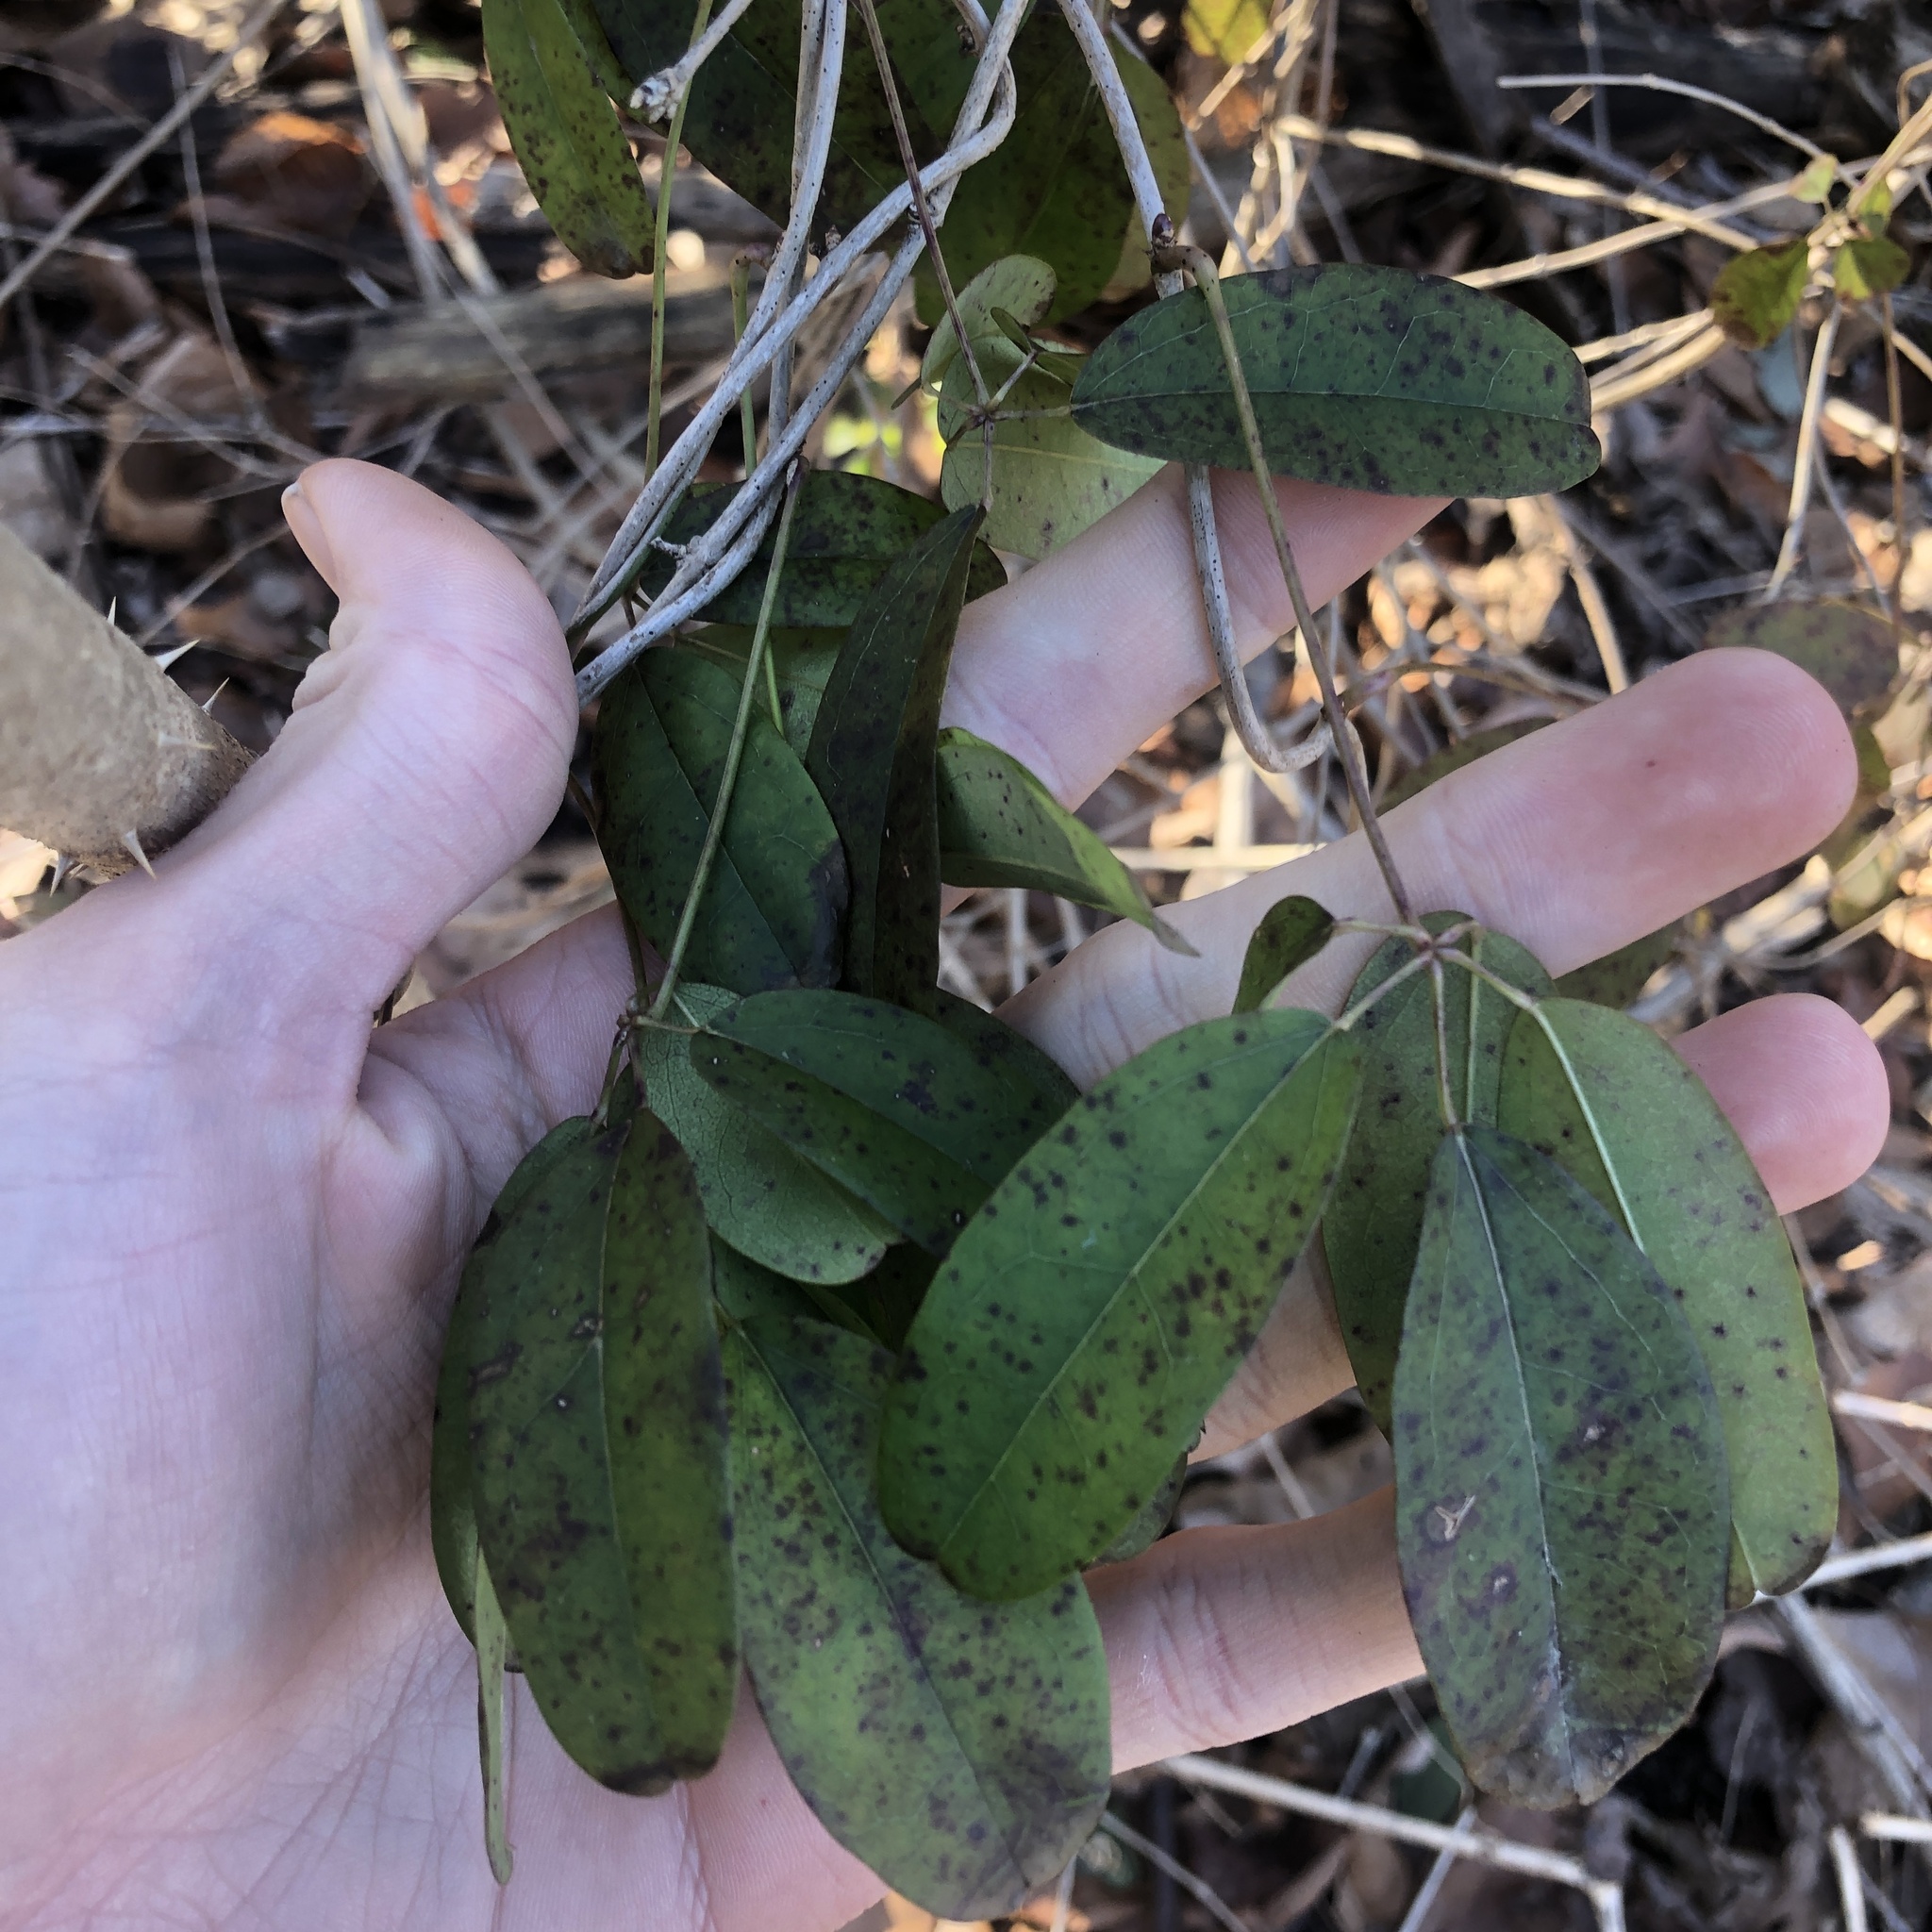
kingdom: Plantae
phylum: Tracheophyta
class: Magnoliopsida
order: Ranunculales
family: Lardizabalaceae
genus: Akebia
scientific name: Akebia quinata
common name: Five-leaf akebia
